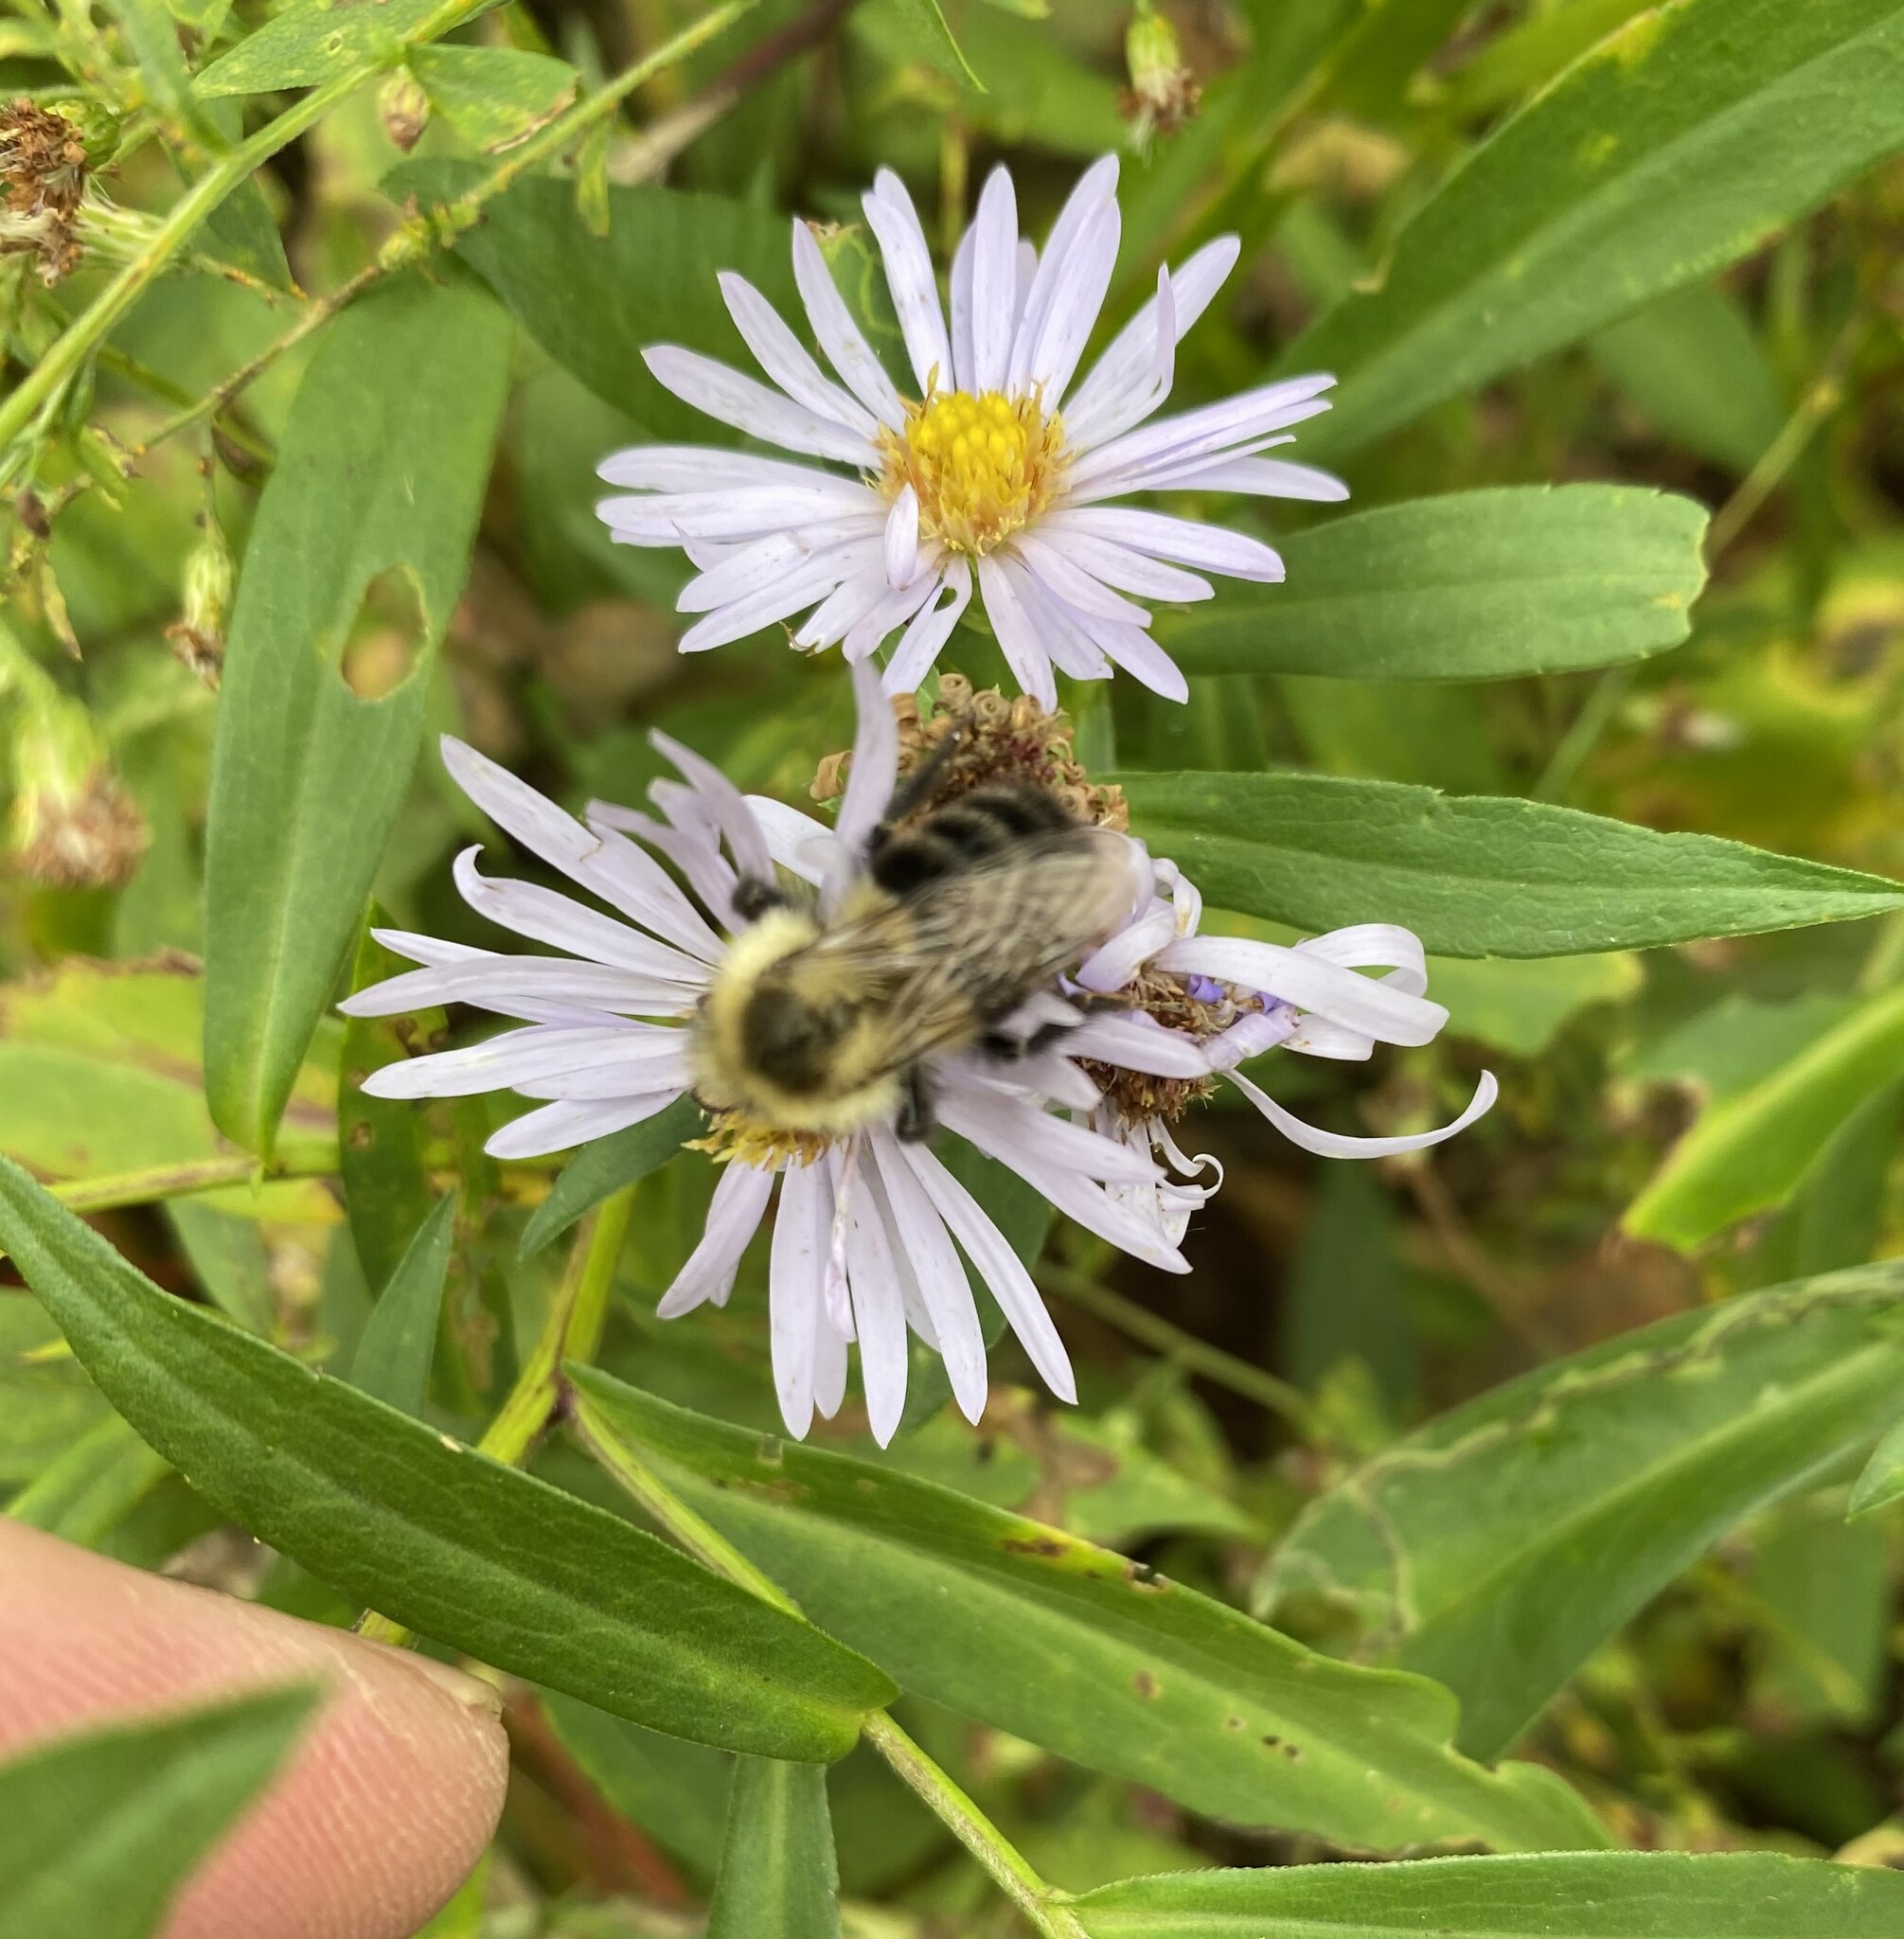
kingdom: Animalia
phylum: Arthropoda
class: Insecta
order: Hymenoptera
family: Apidae
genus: Bombus
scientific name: Bombus impatiens
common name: Common eastern bumble bee
